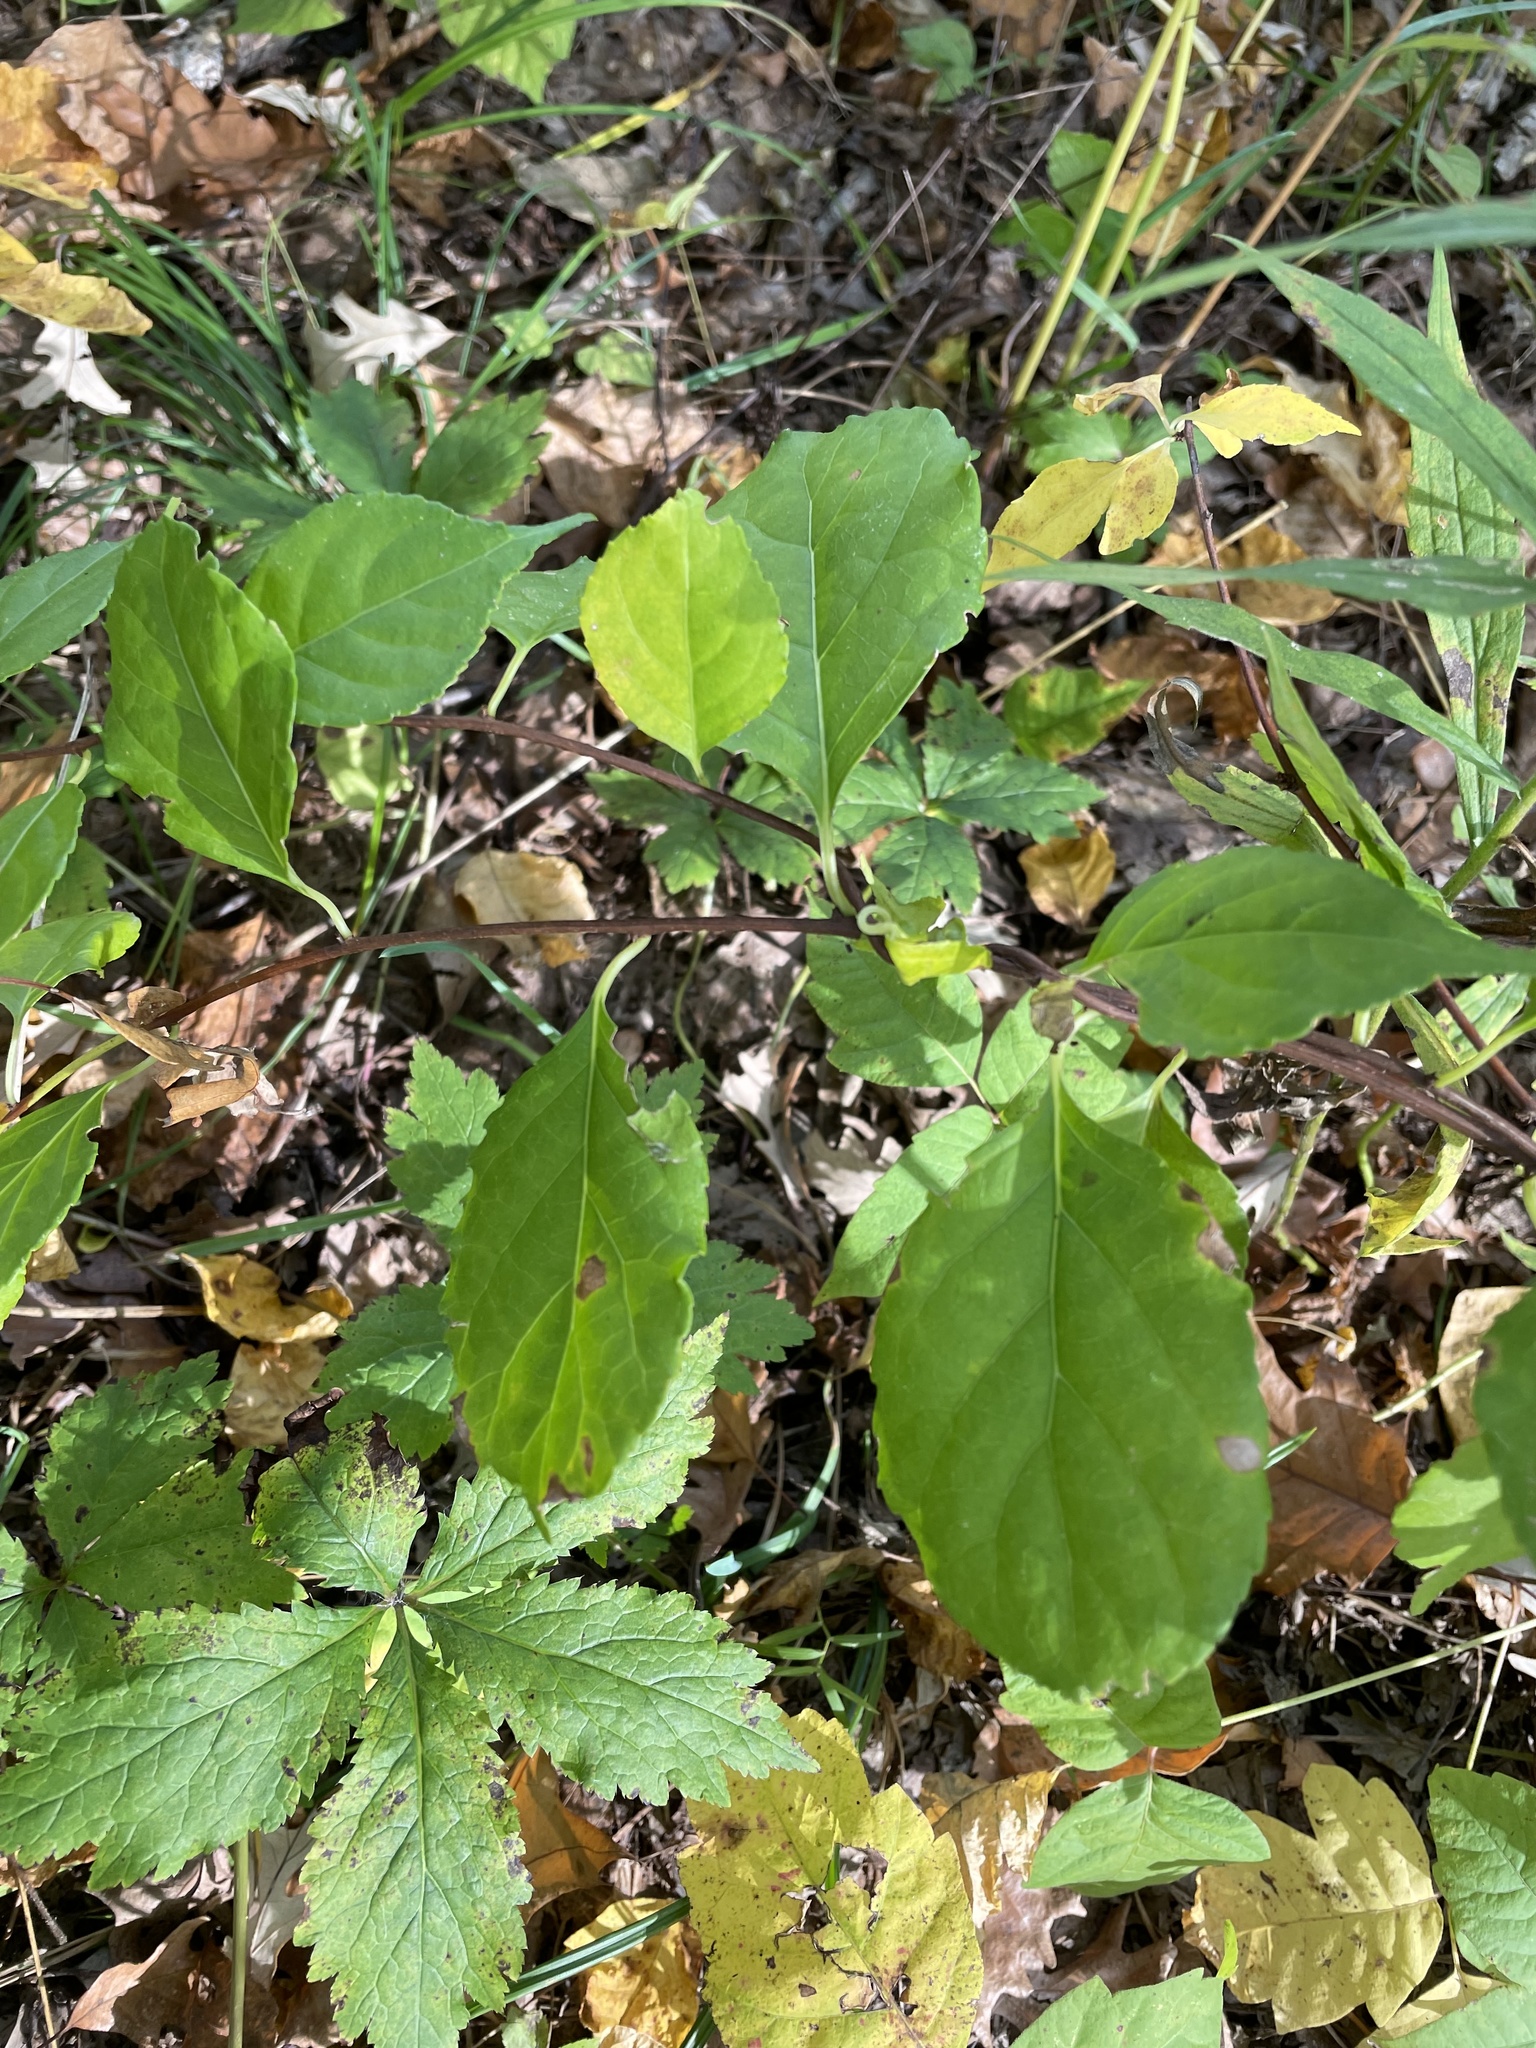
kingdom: Plantae
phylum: Tracheophyta
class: Magnoliopsida
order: Celastrales
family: Celastraceae
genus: Celastrus
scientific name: Celastrus orbiculatus
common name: Oriental bittersweet
